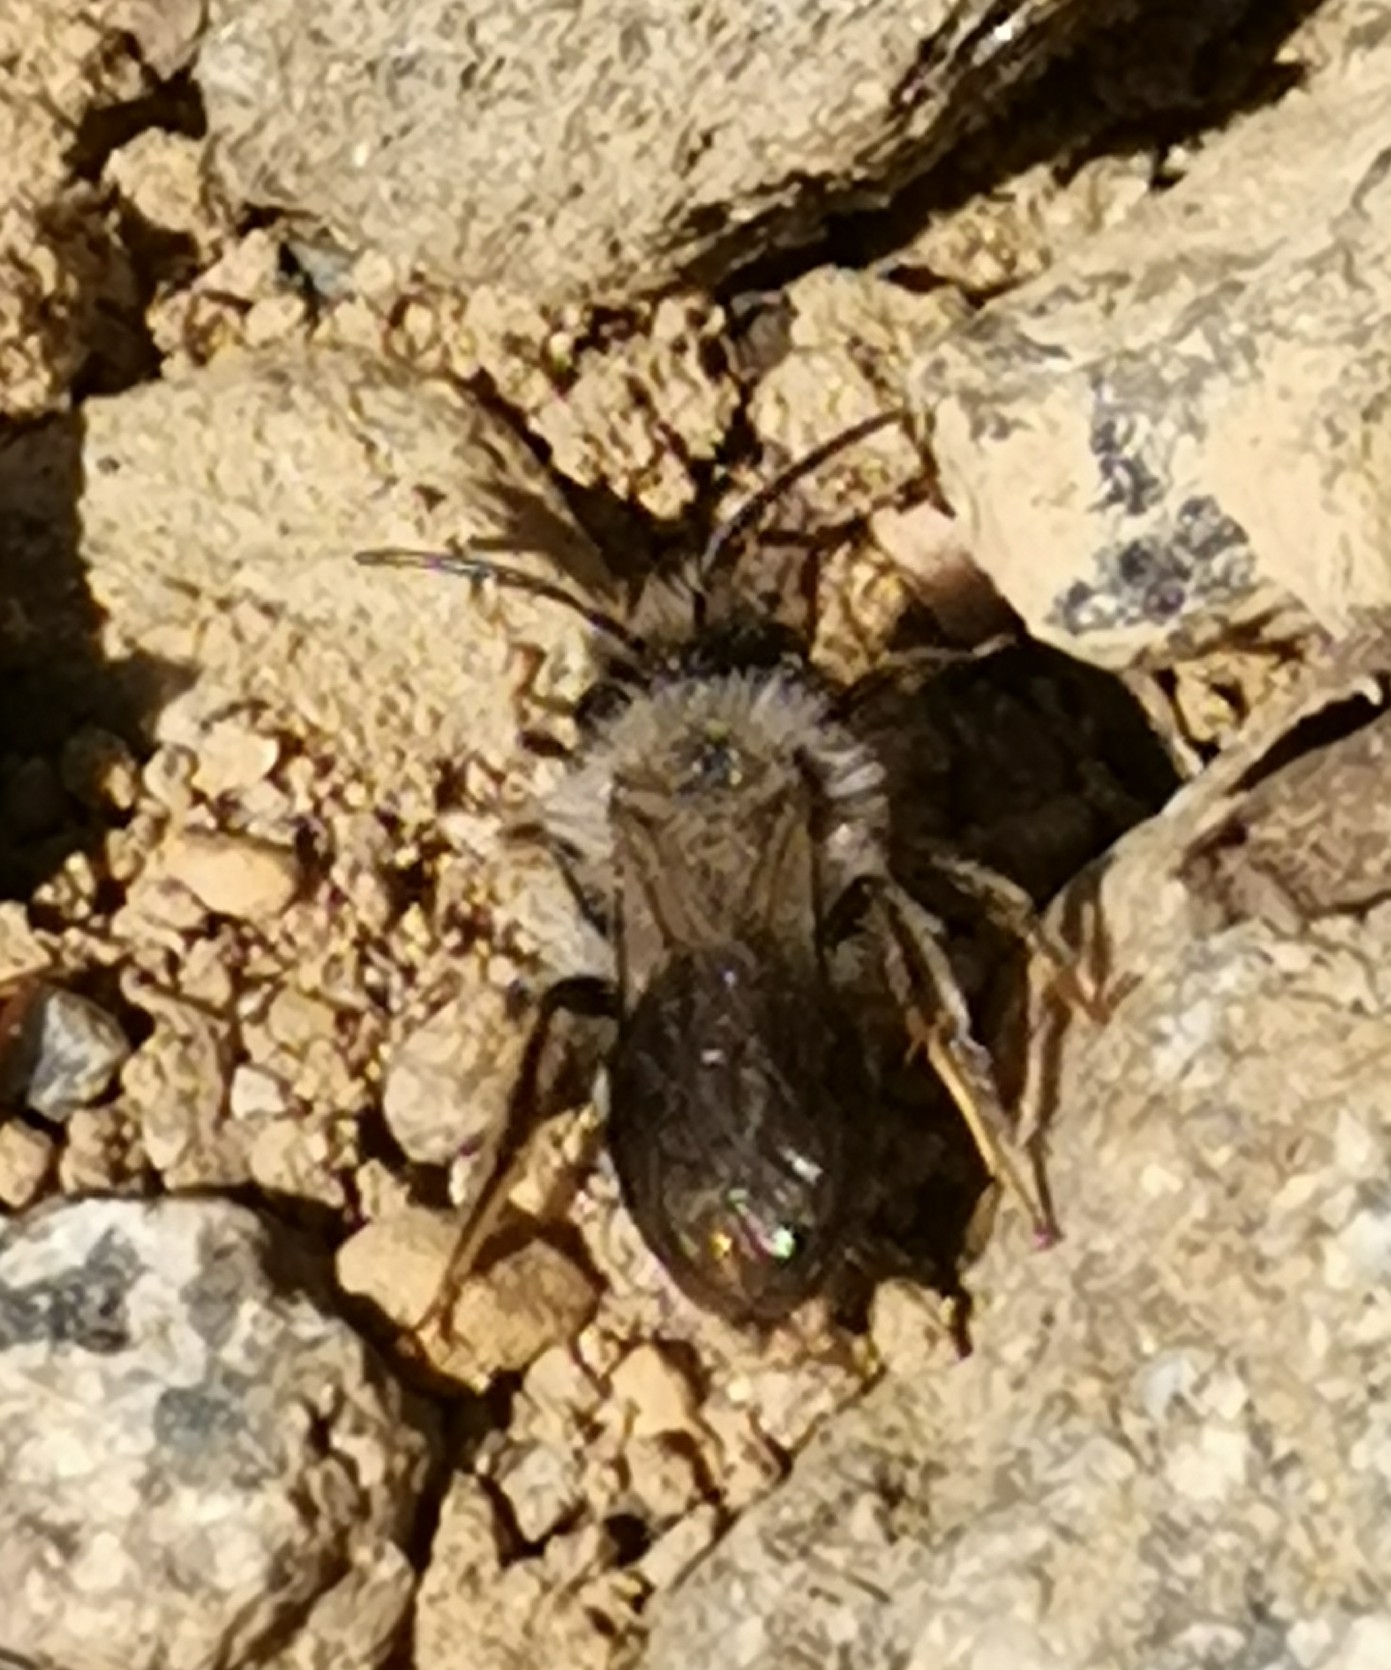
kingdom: Animalia
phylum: Arthropoda
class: Insecta
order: Hymenoptera
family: Andrenidae
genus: Andrena
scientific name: Andrena vaga
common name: Grey-backed mining bee
